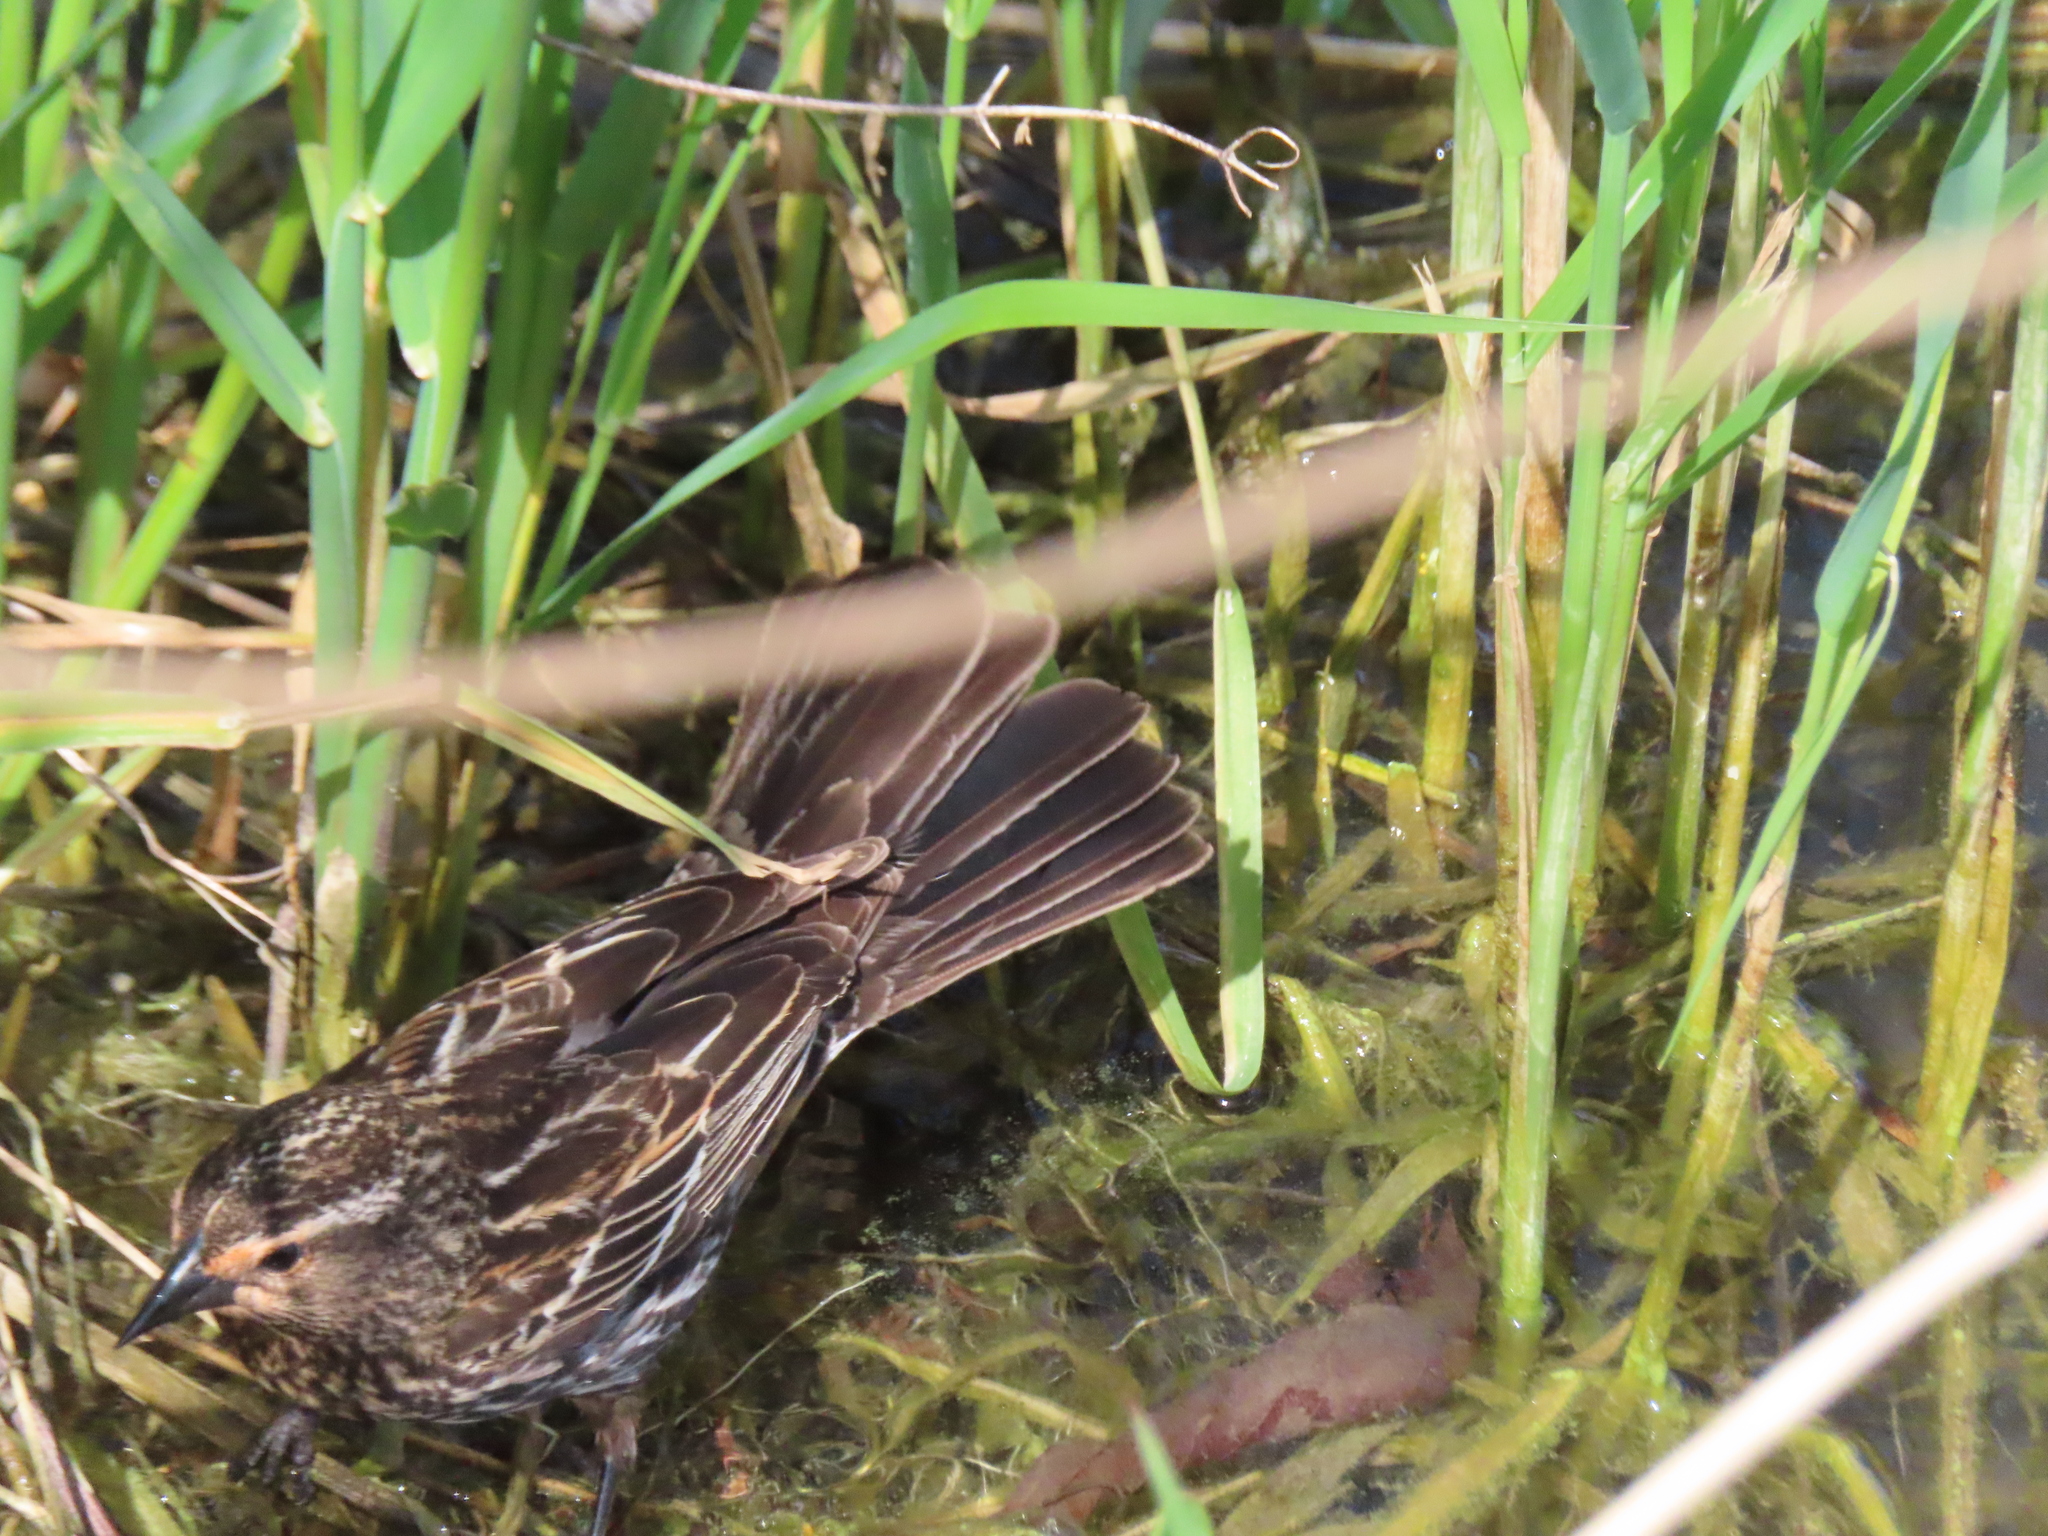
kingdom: Animalia
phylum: Chordata
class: Aves
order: Passeriformes
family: Icteridae
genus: Agelaius
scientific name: Agelaius phoeniceus
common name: Red-winged blackbird
